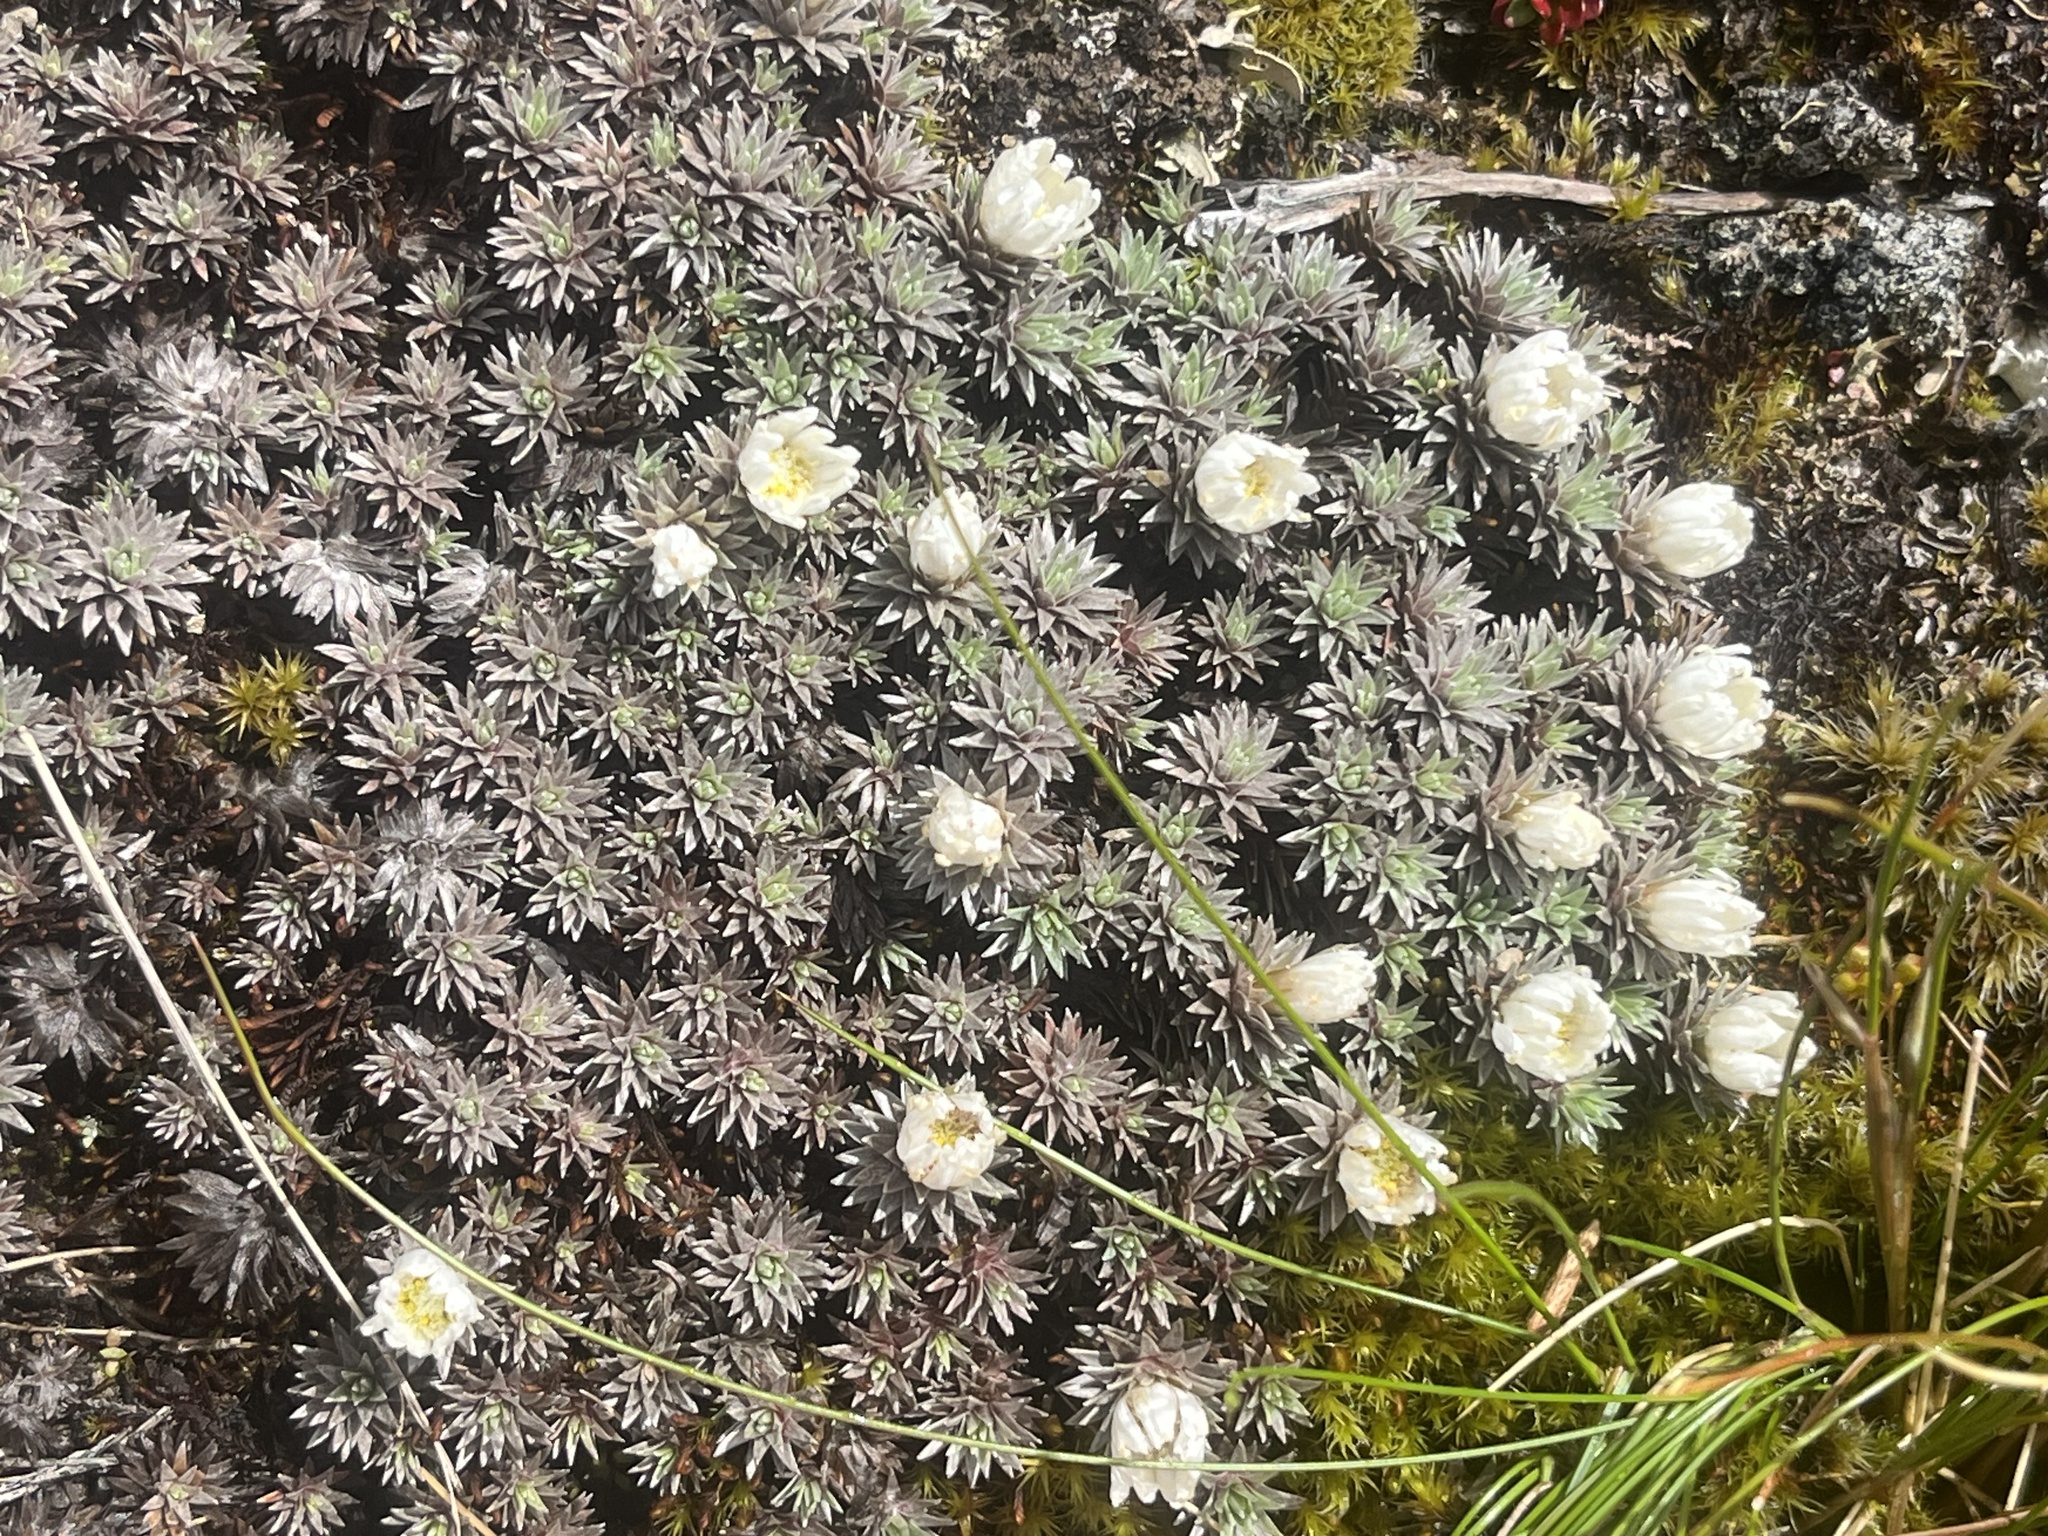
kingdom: Plantae
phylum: Tracheophyta
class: Magnoliopsida
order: Asterales
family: Asteraceae
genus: Raoulia
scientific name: Raoulia grandiflora
